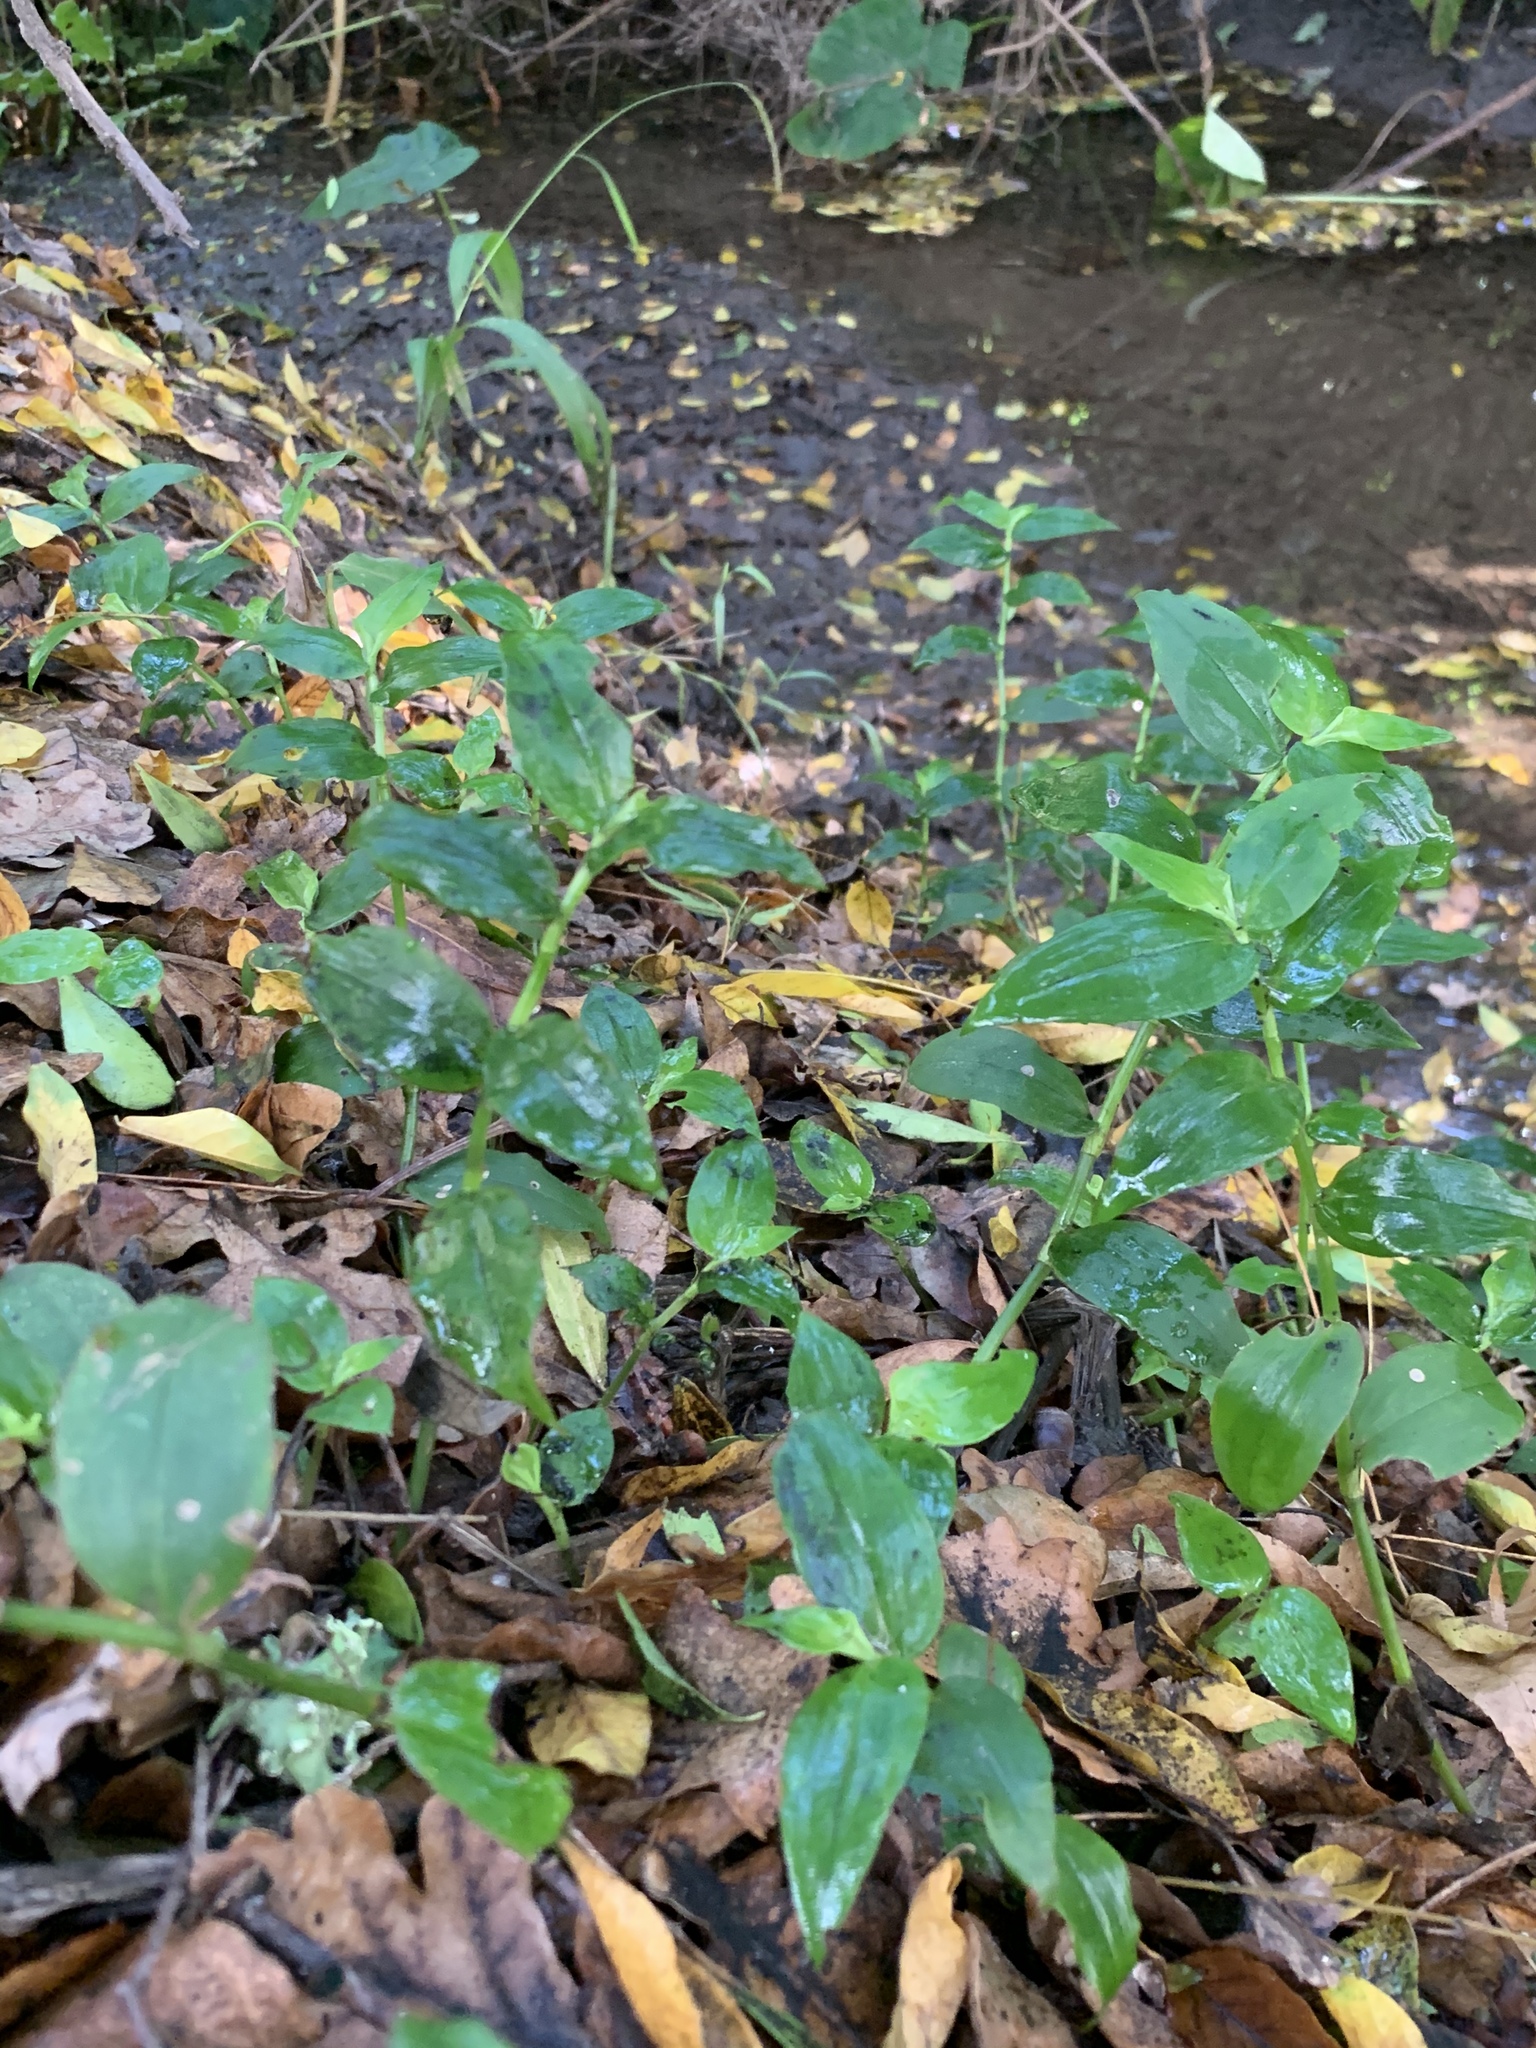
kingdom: Plantae
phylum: Tracheophyta
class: Liliopsida
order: Commelinales
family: Commelinaceae
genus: Tradescantia
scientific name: Tradescantia fluminensis
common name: Wandering-jew
